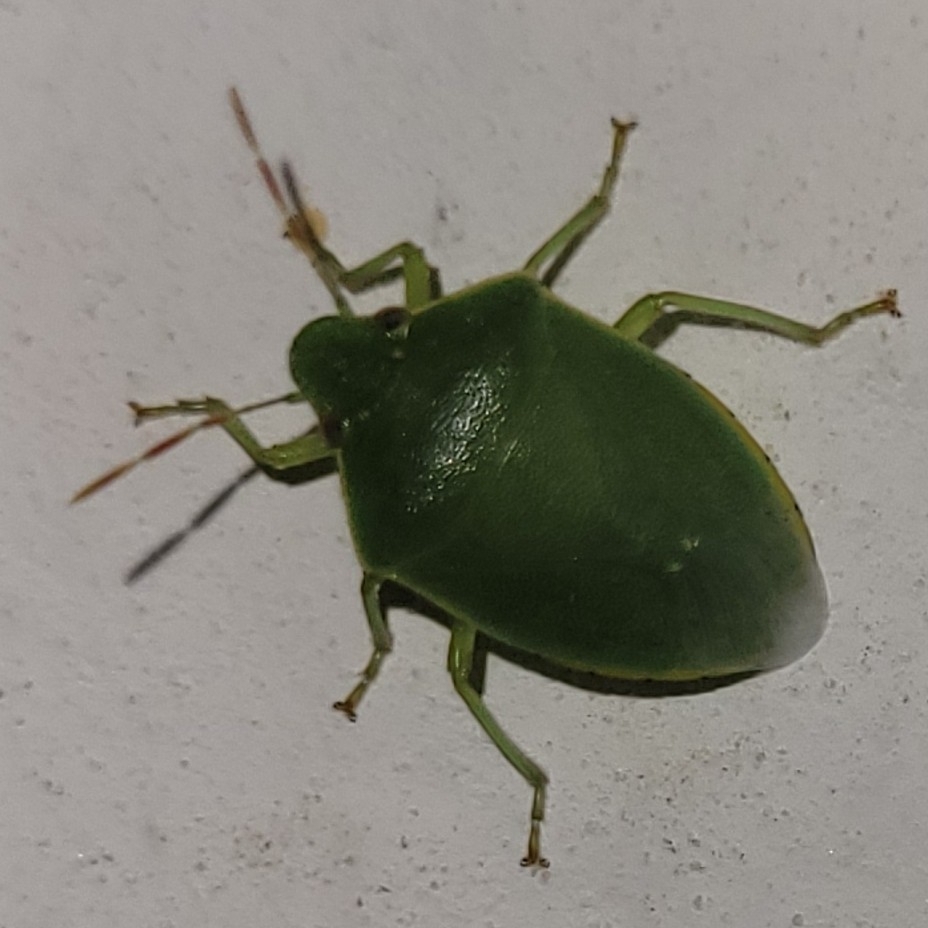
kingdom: Animalia
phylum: Arthropoda
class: Insecta
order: Hemiptera
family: Pentatomidae
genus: Acrosternum
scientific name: Acrosternum heegeri
